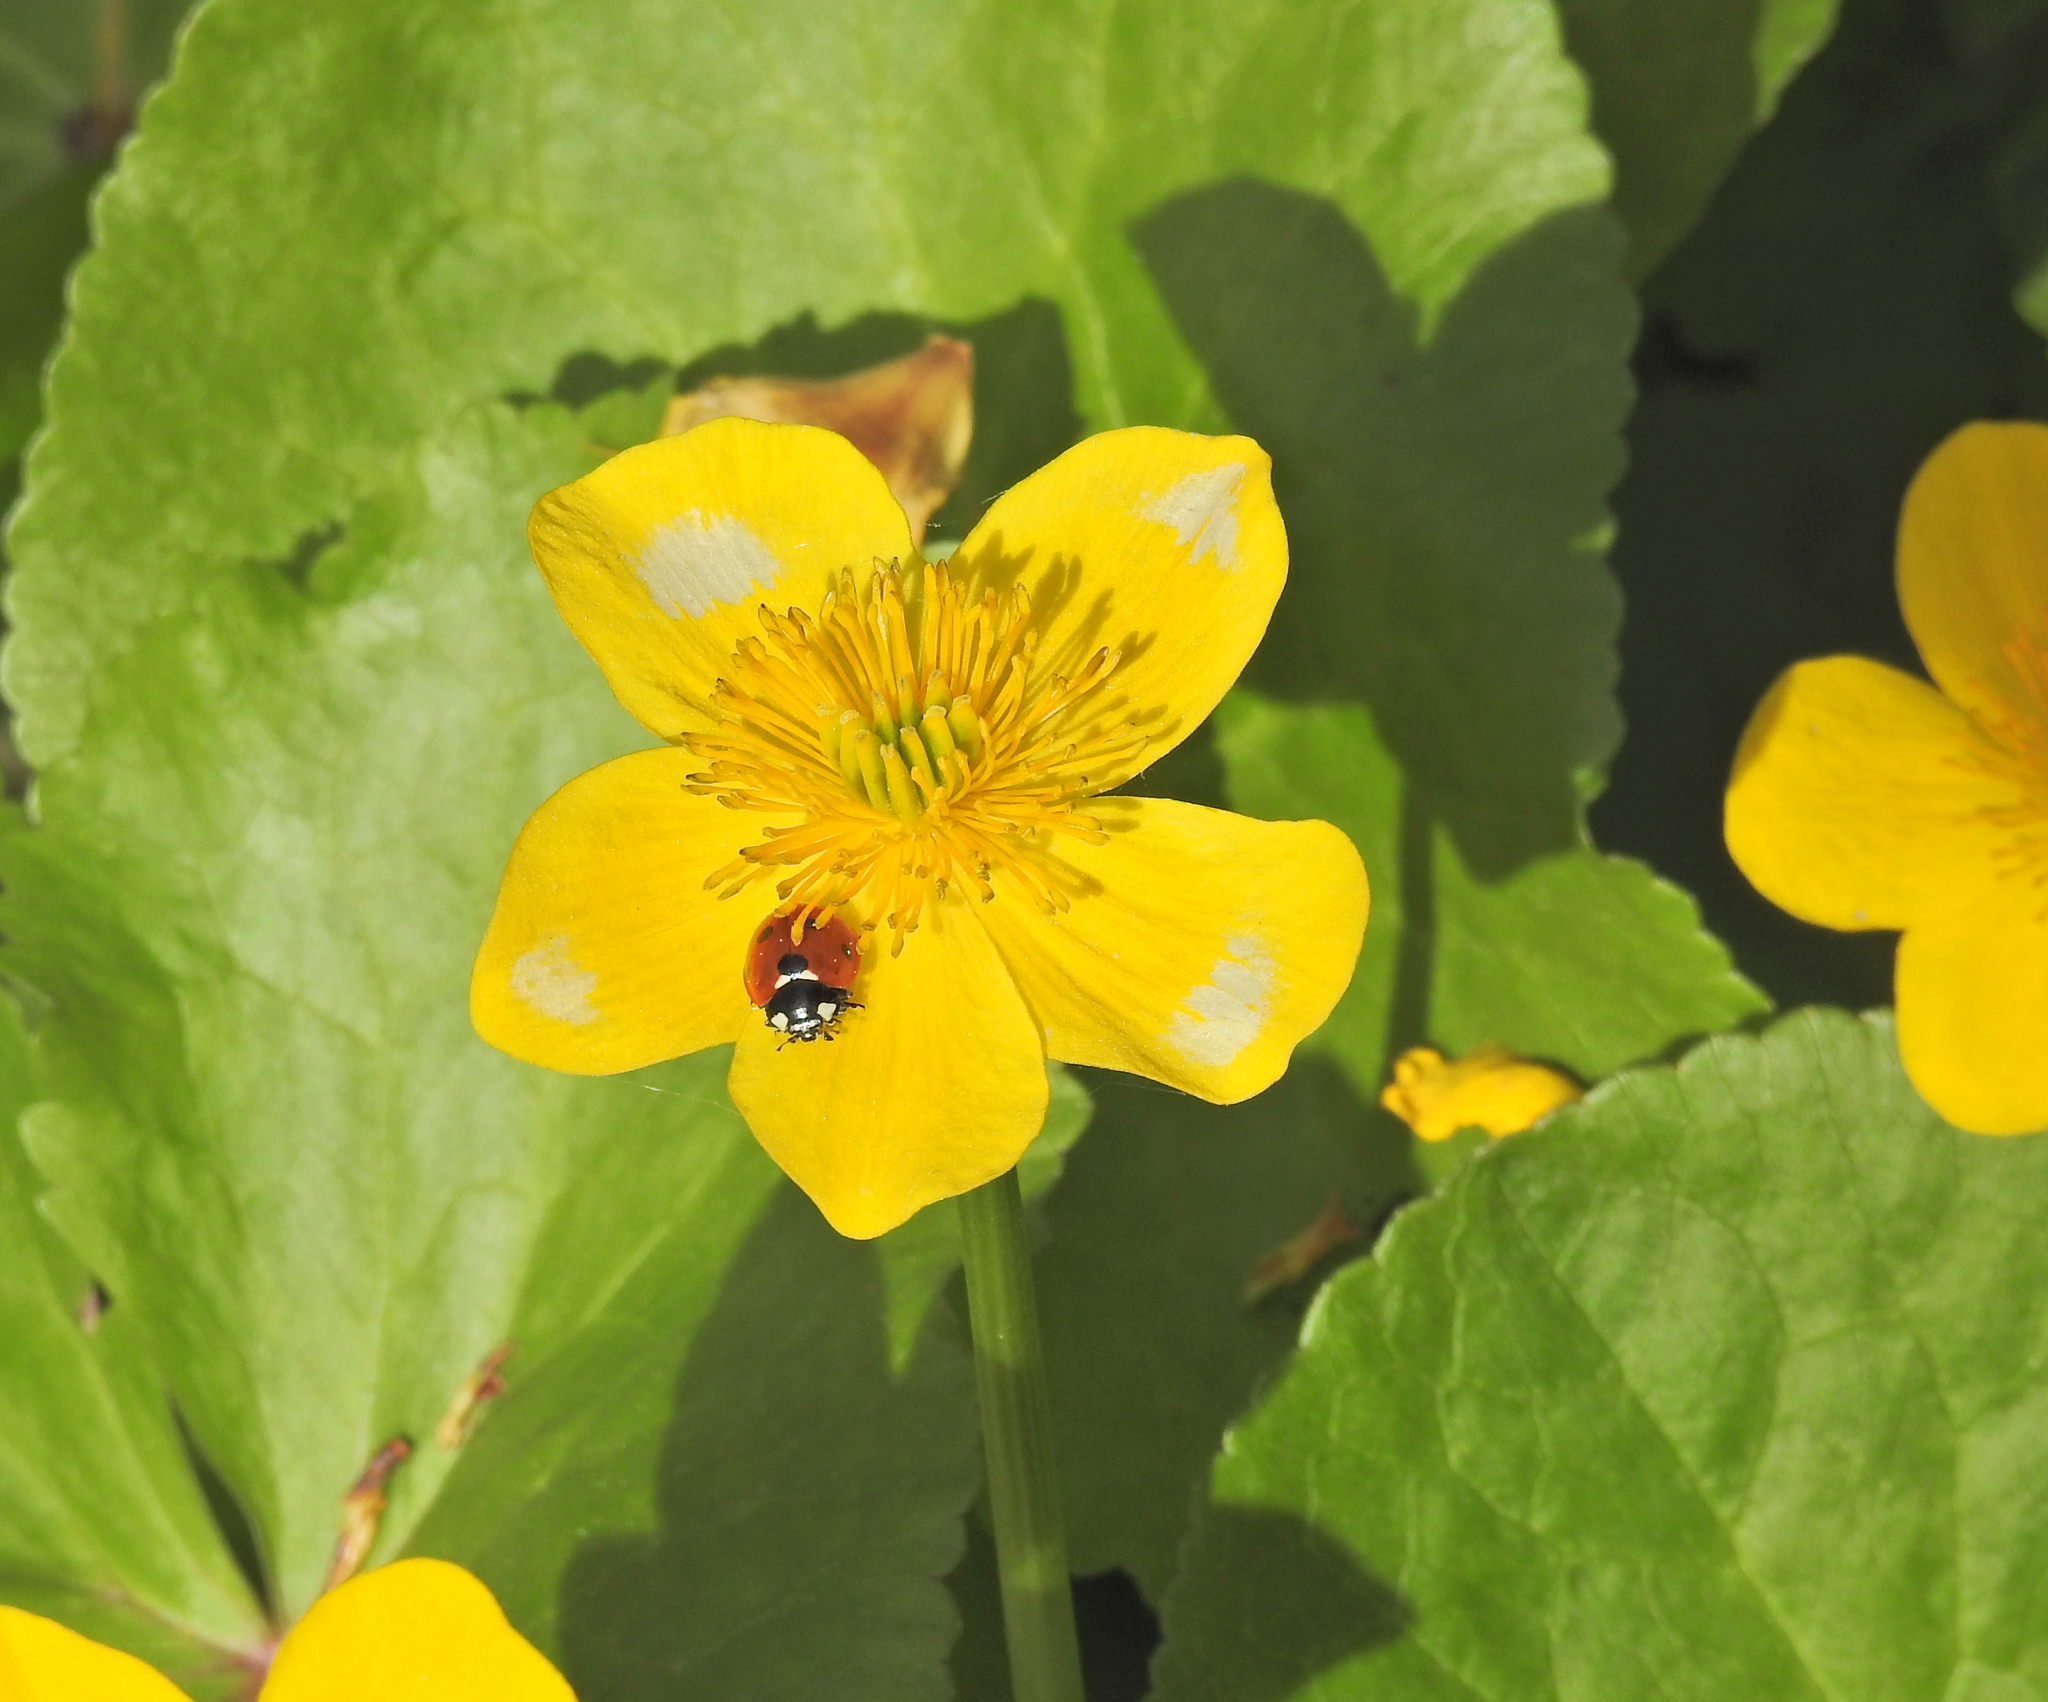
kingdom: Animalia
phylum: Arthropoda
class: Insecta
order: Coleoptera
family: Coccinellidae
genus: Coccinella
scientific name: Coccinella septempunctata
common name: Sevenspotted lady beetle
